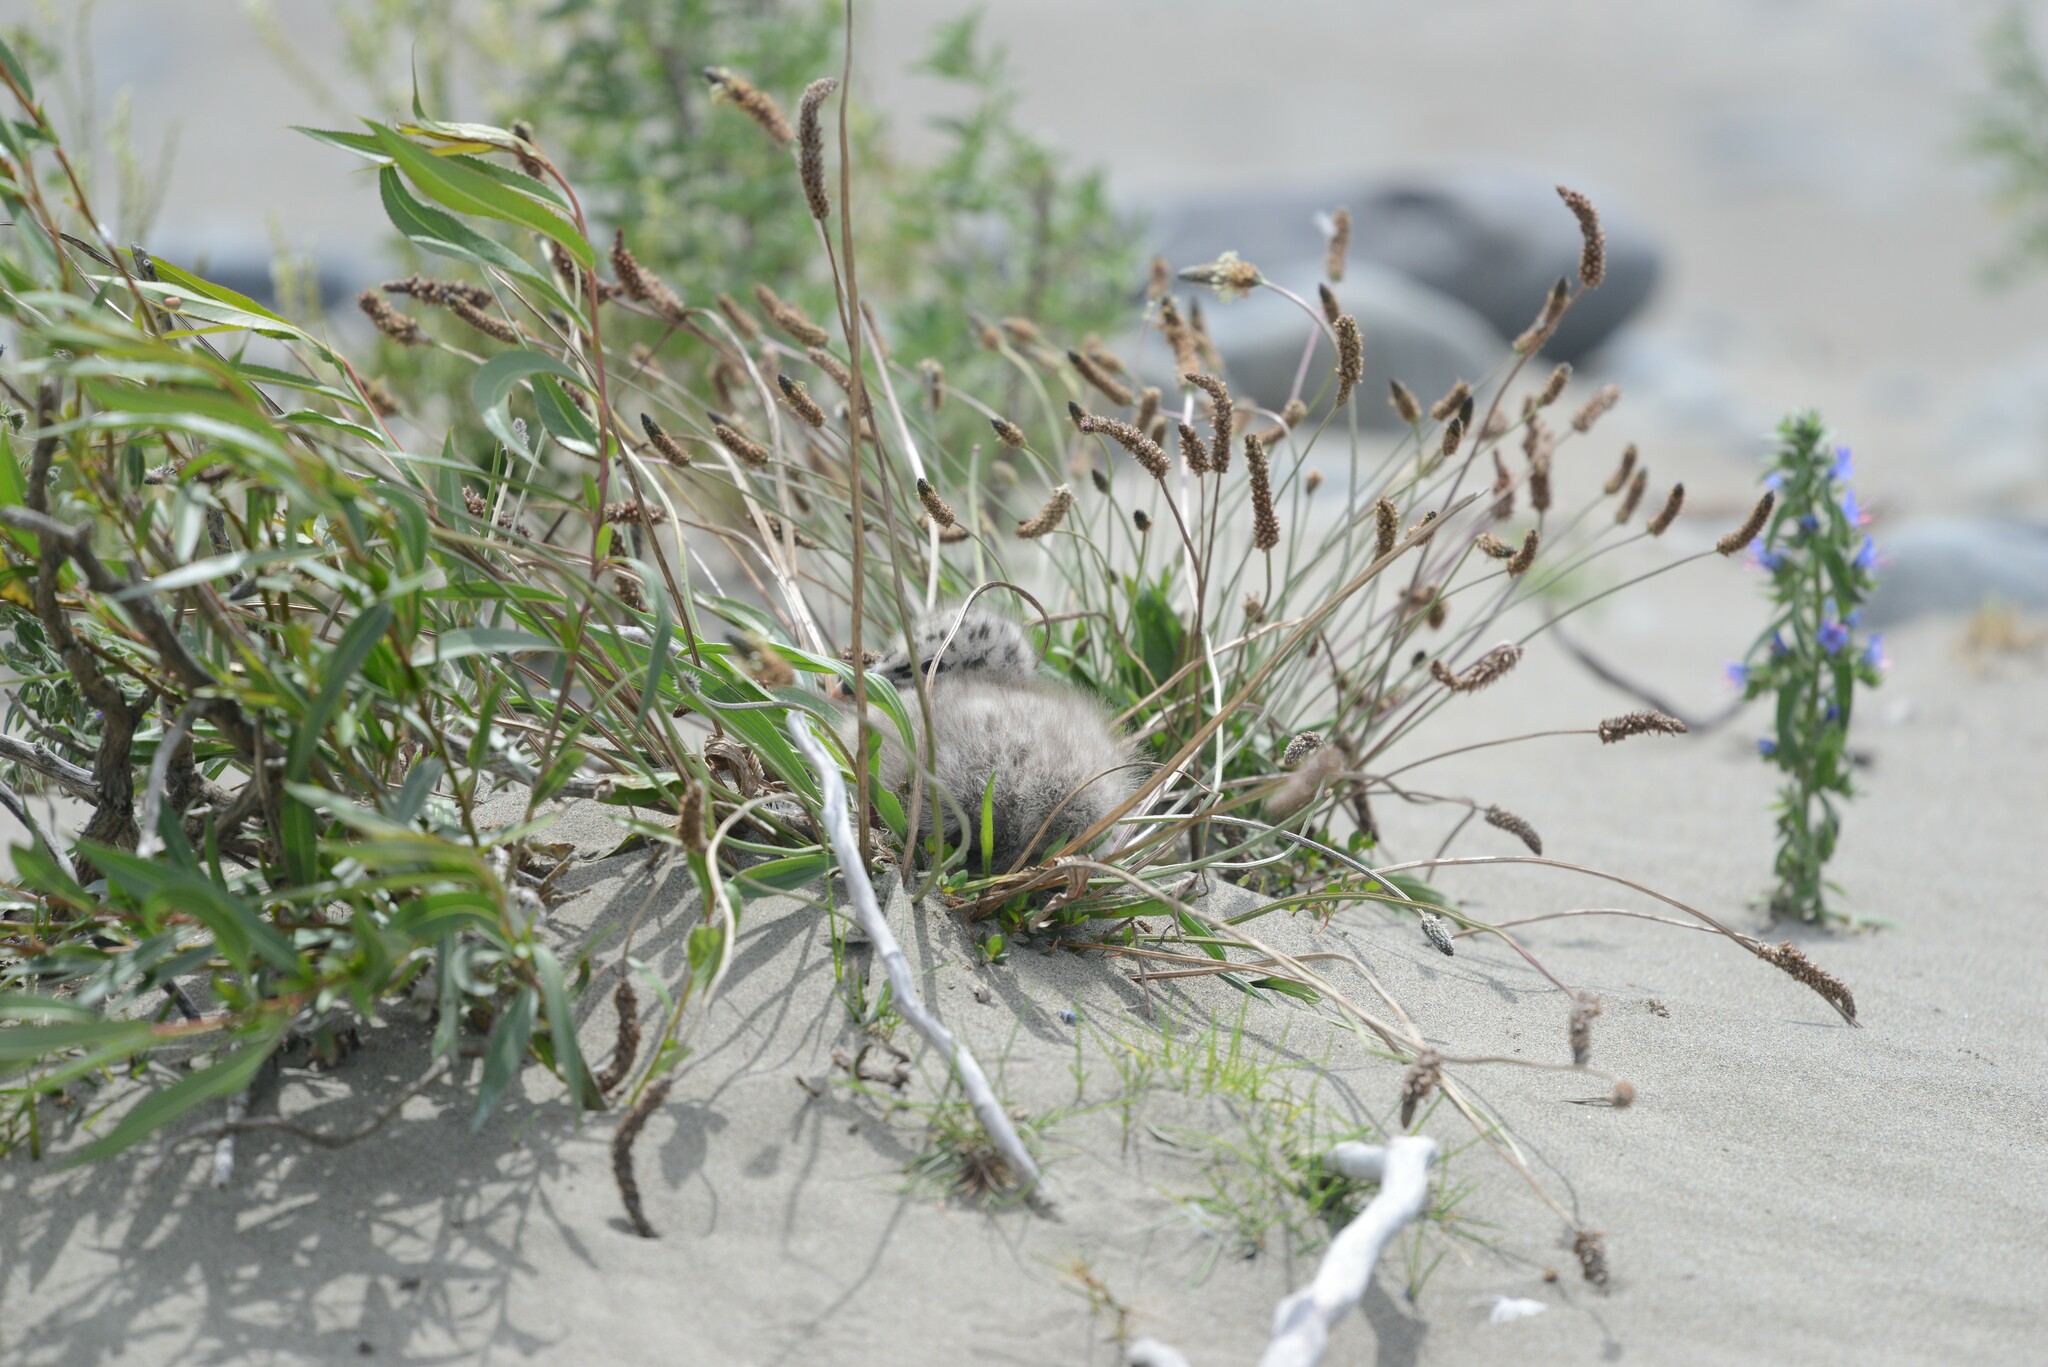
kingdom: Animalia
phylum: Chordata
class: Aves
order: Charadriiformes
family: Laridae
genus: Larus
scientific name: Larus dominicanus
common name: Kelp gull
